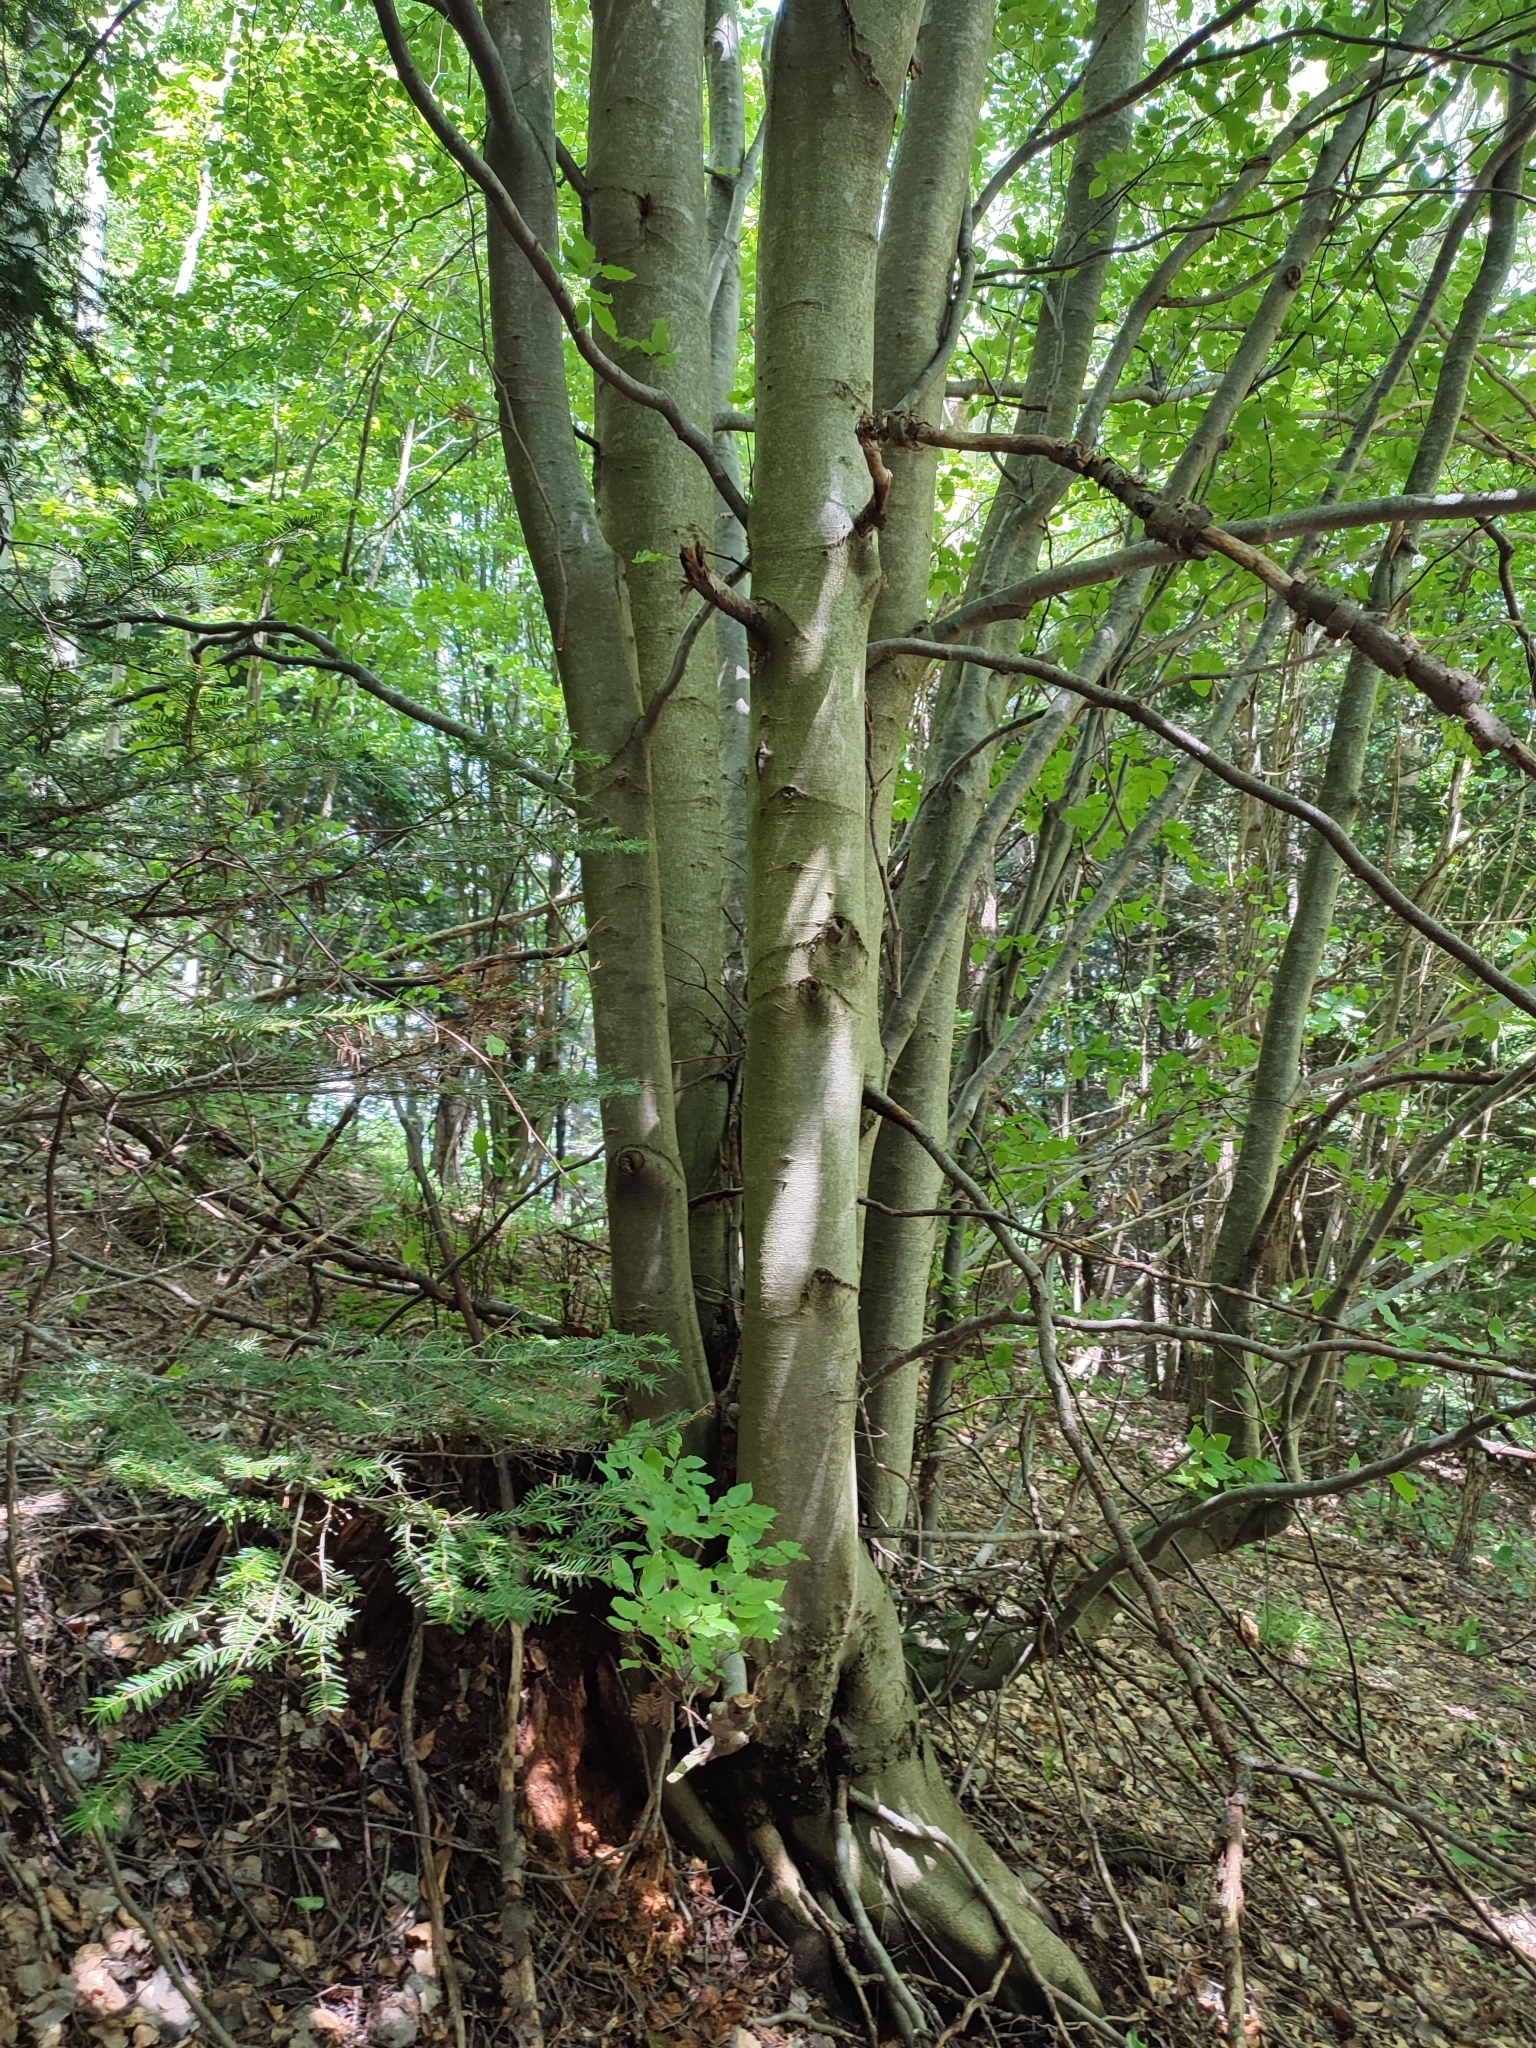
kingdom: Plantae
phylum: Tracheophyta
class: Magnoliopsida
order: Fagales
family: Fagaceae
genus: Fagus
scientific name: Fagus sylvatica
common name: Beech
